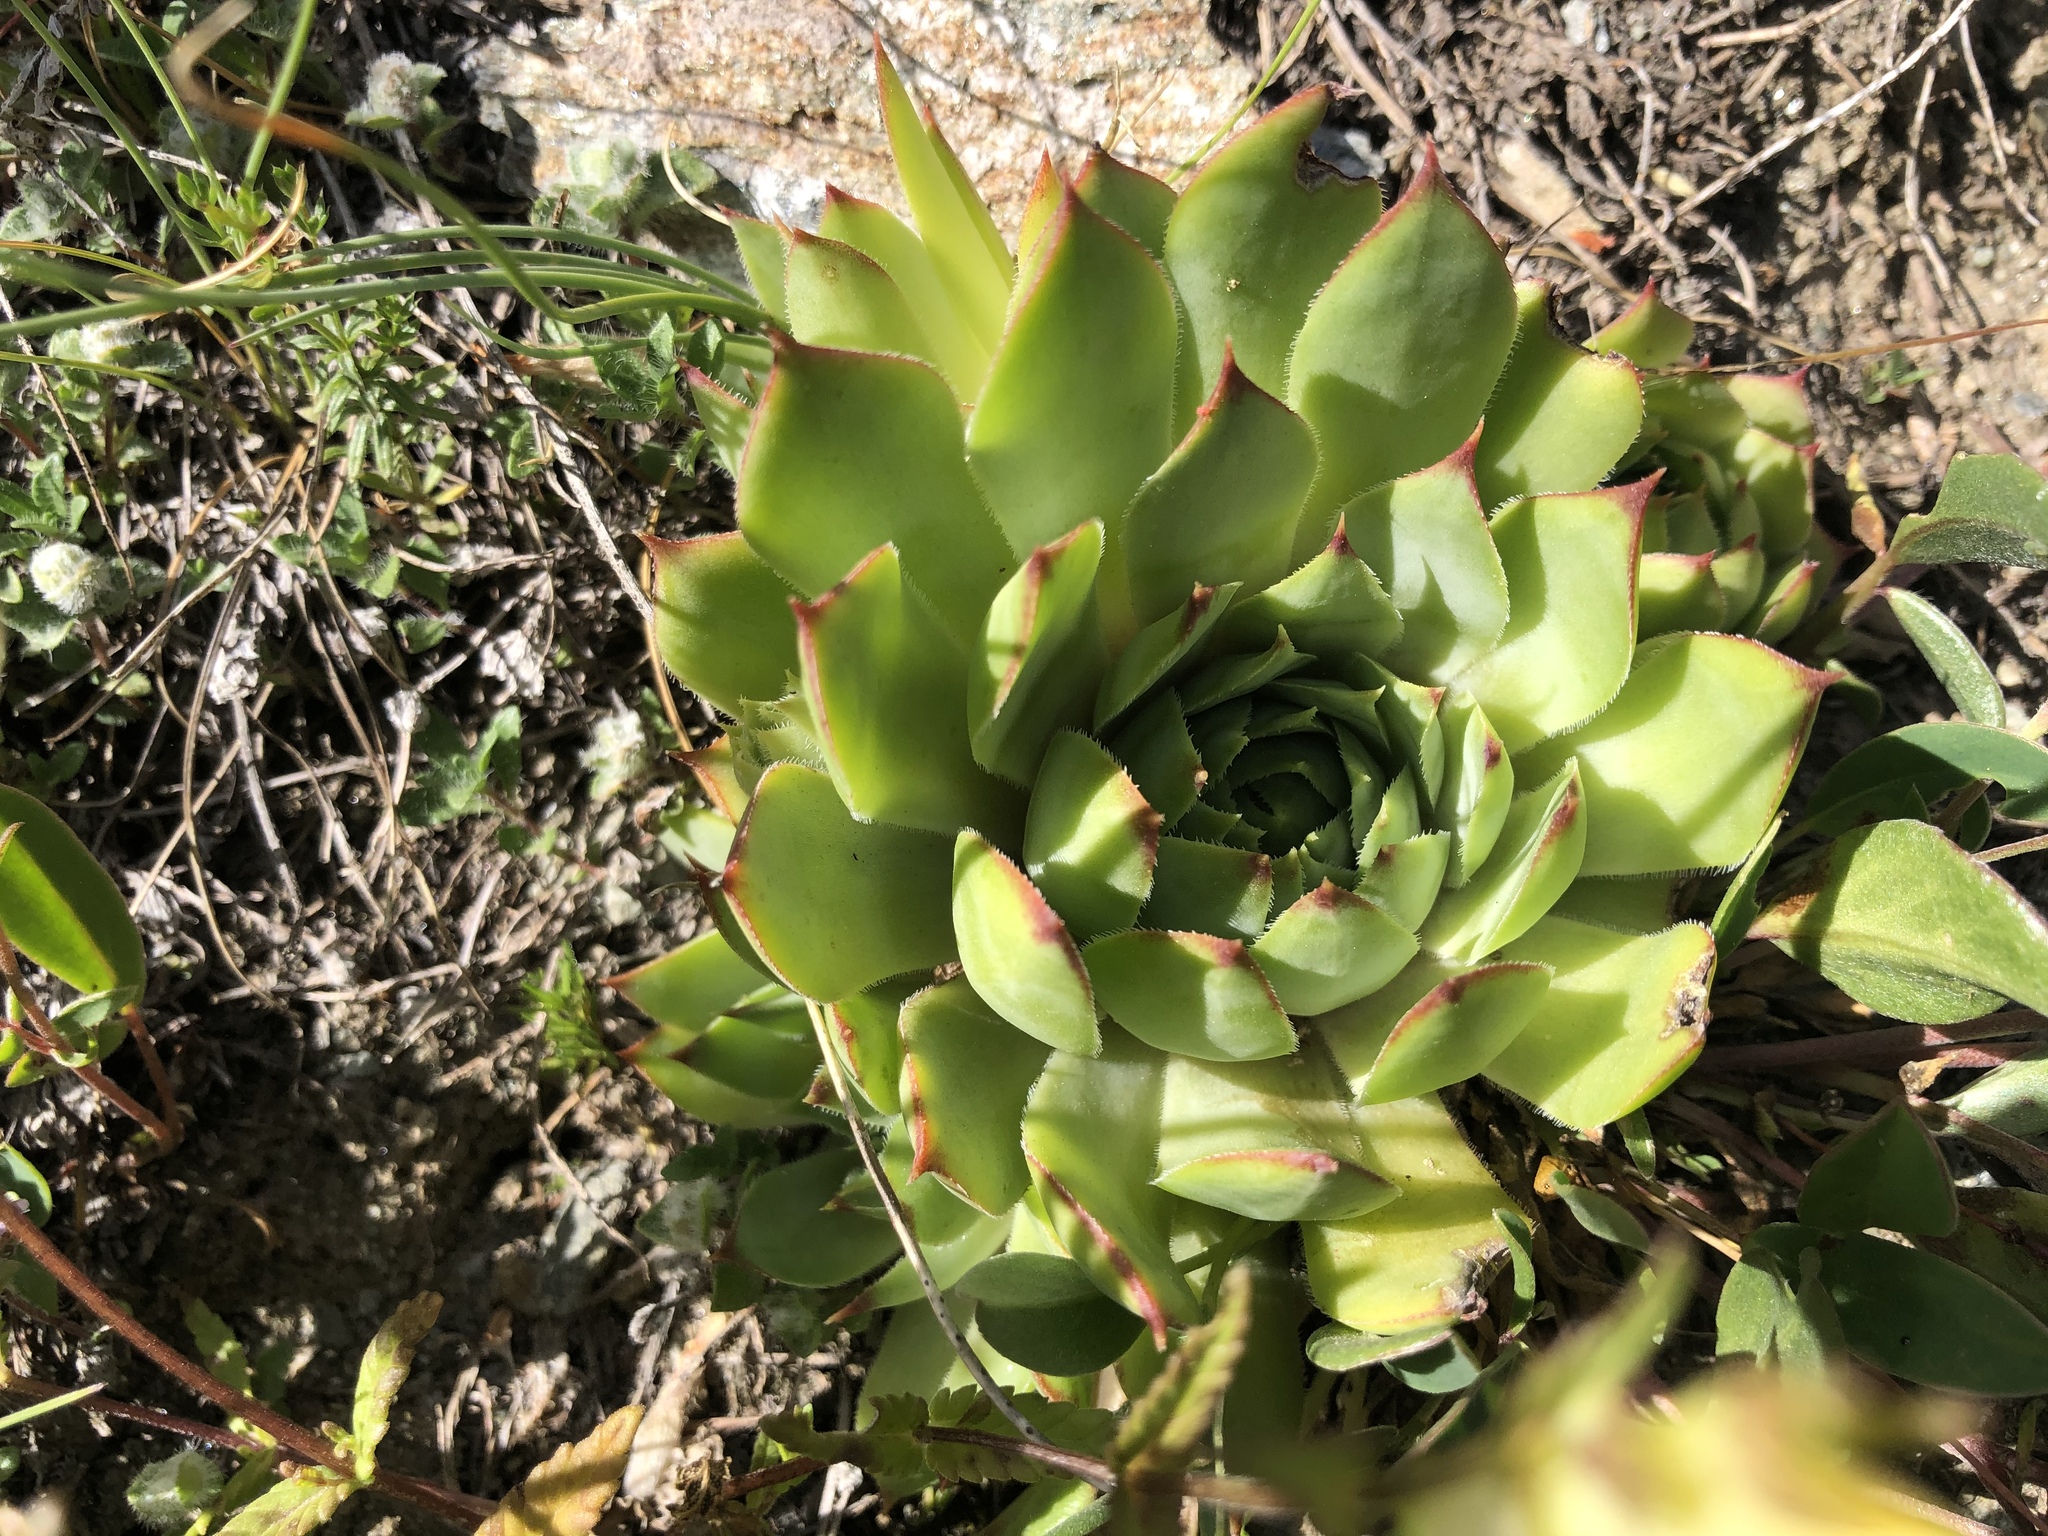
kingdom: Plantae
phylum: Tracheophyta
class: Magnoliopsida
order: Saxifragales
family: Crassulaceae
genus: Sempervivum
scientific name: Sempervivum tectorum
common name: House-leek
